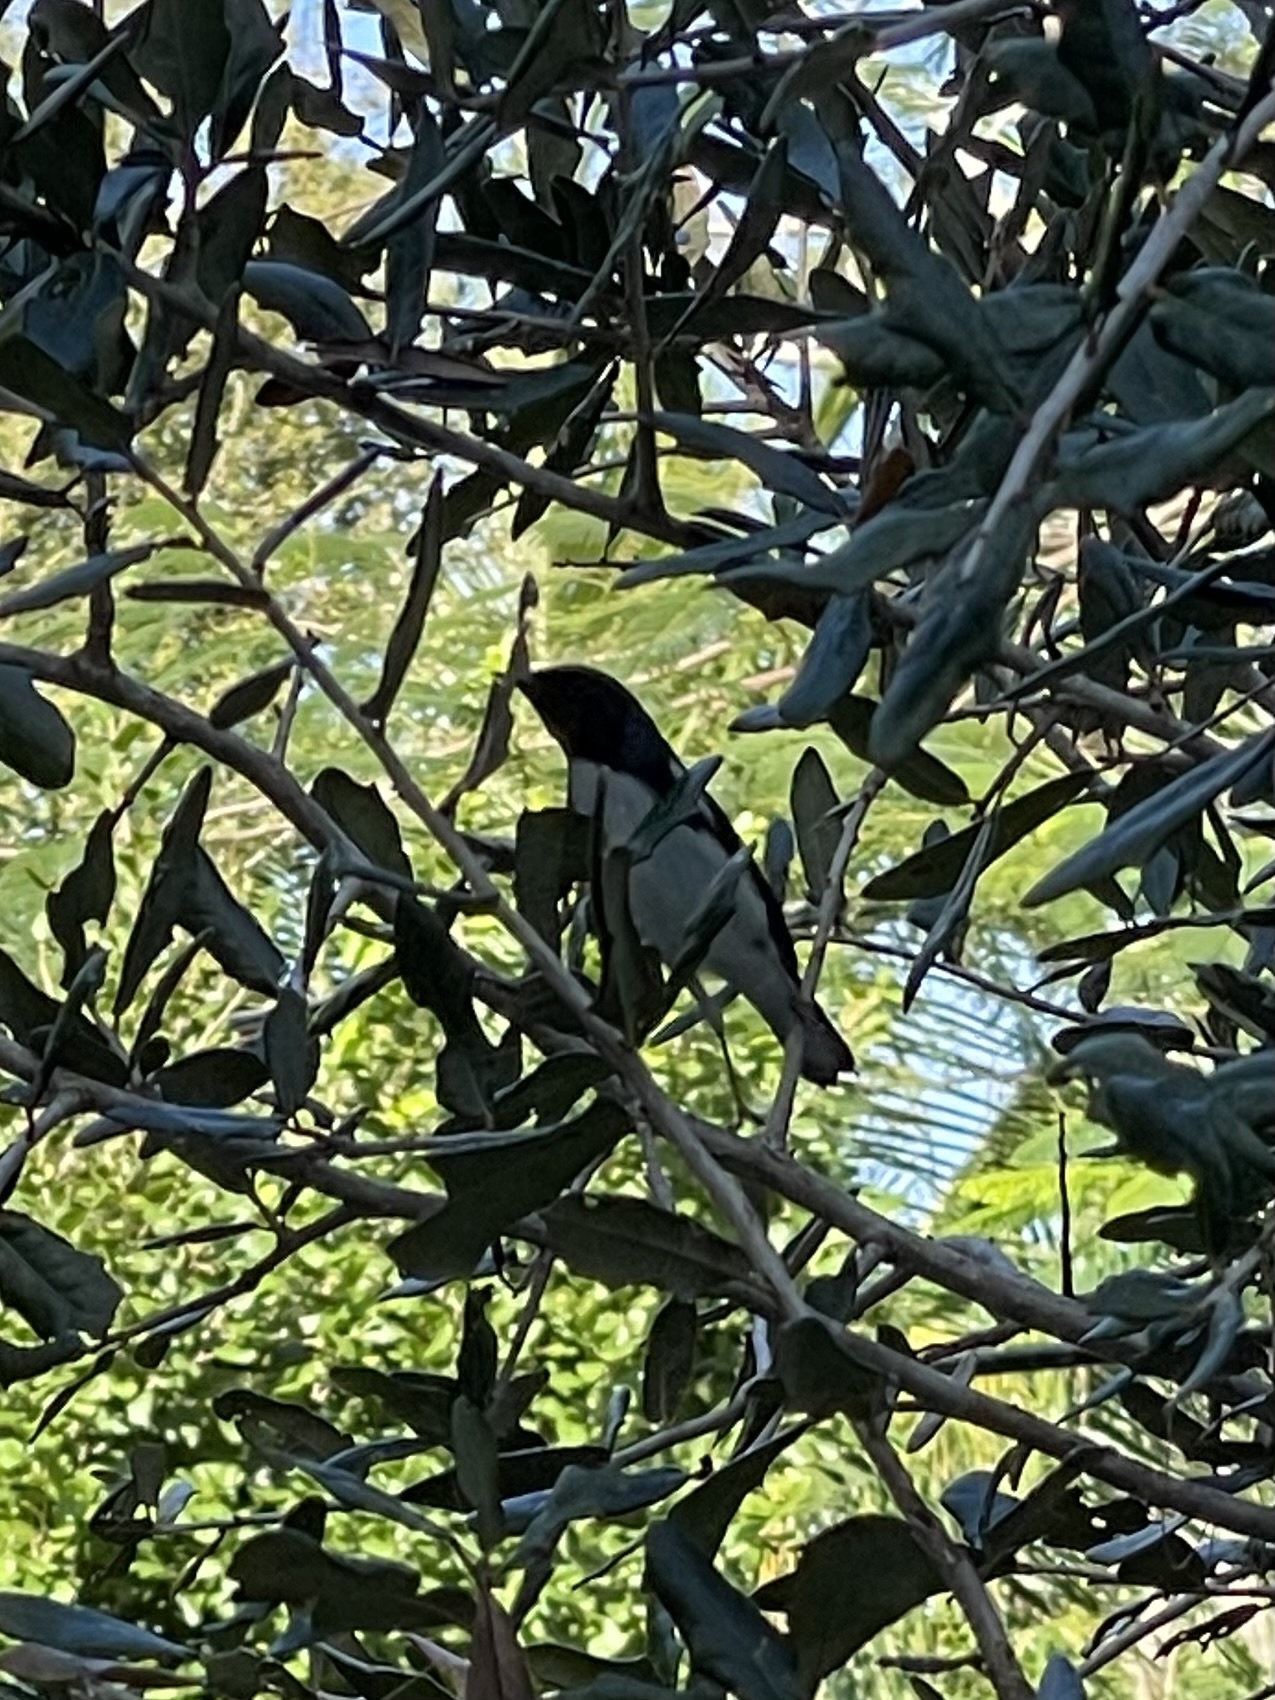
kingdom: Animalia
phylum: Chordata
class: Aves
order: Passeriformes
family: Parulidae
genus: Setophaga
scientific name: Setophaga caerulescens
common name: Black-throated blue warbler
